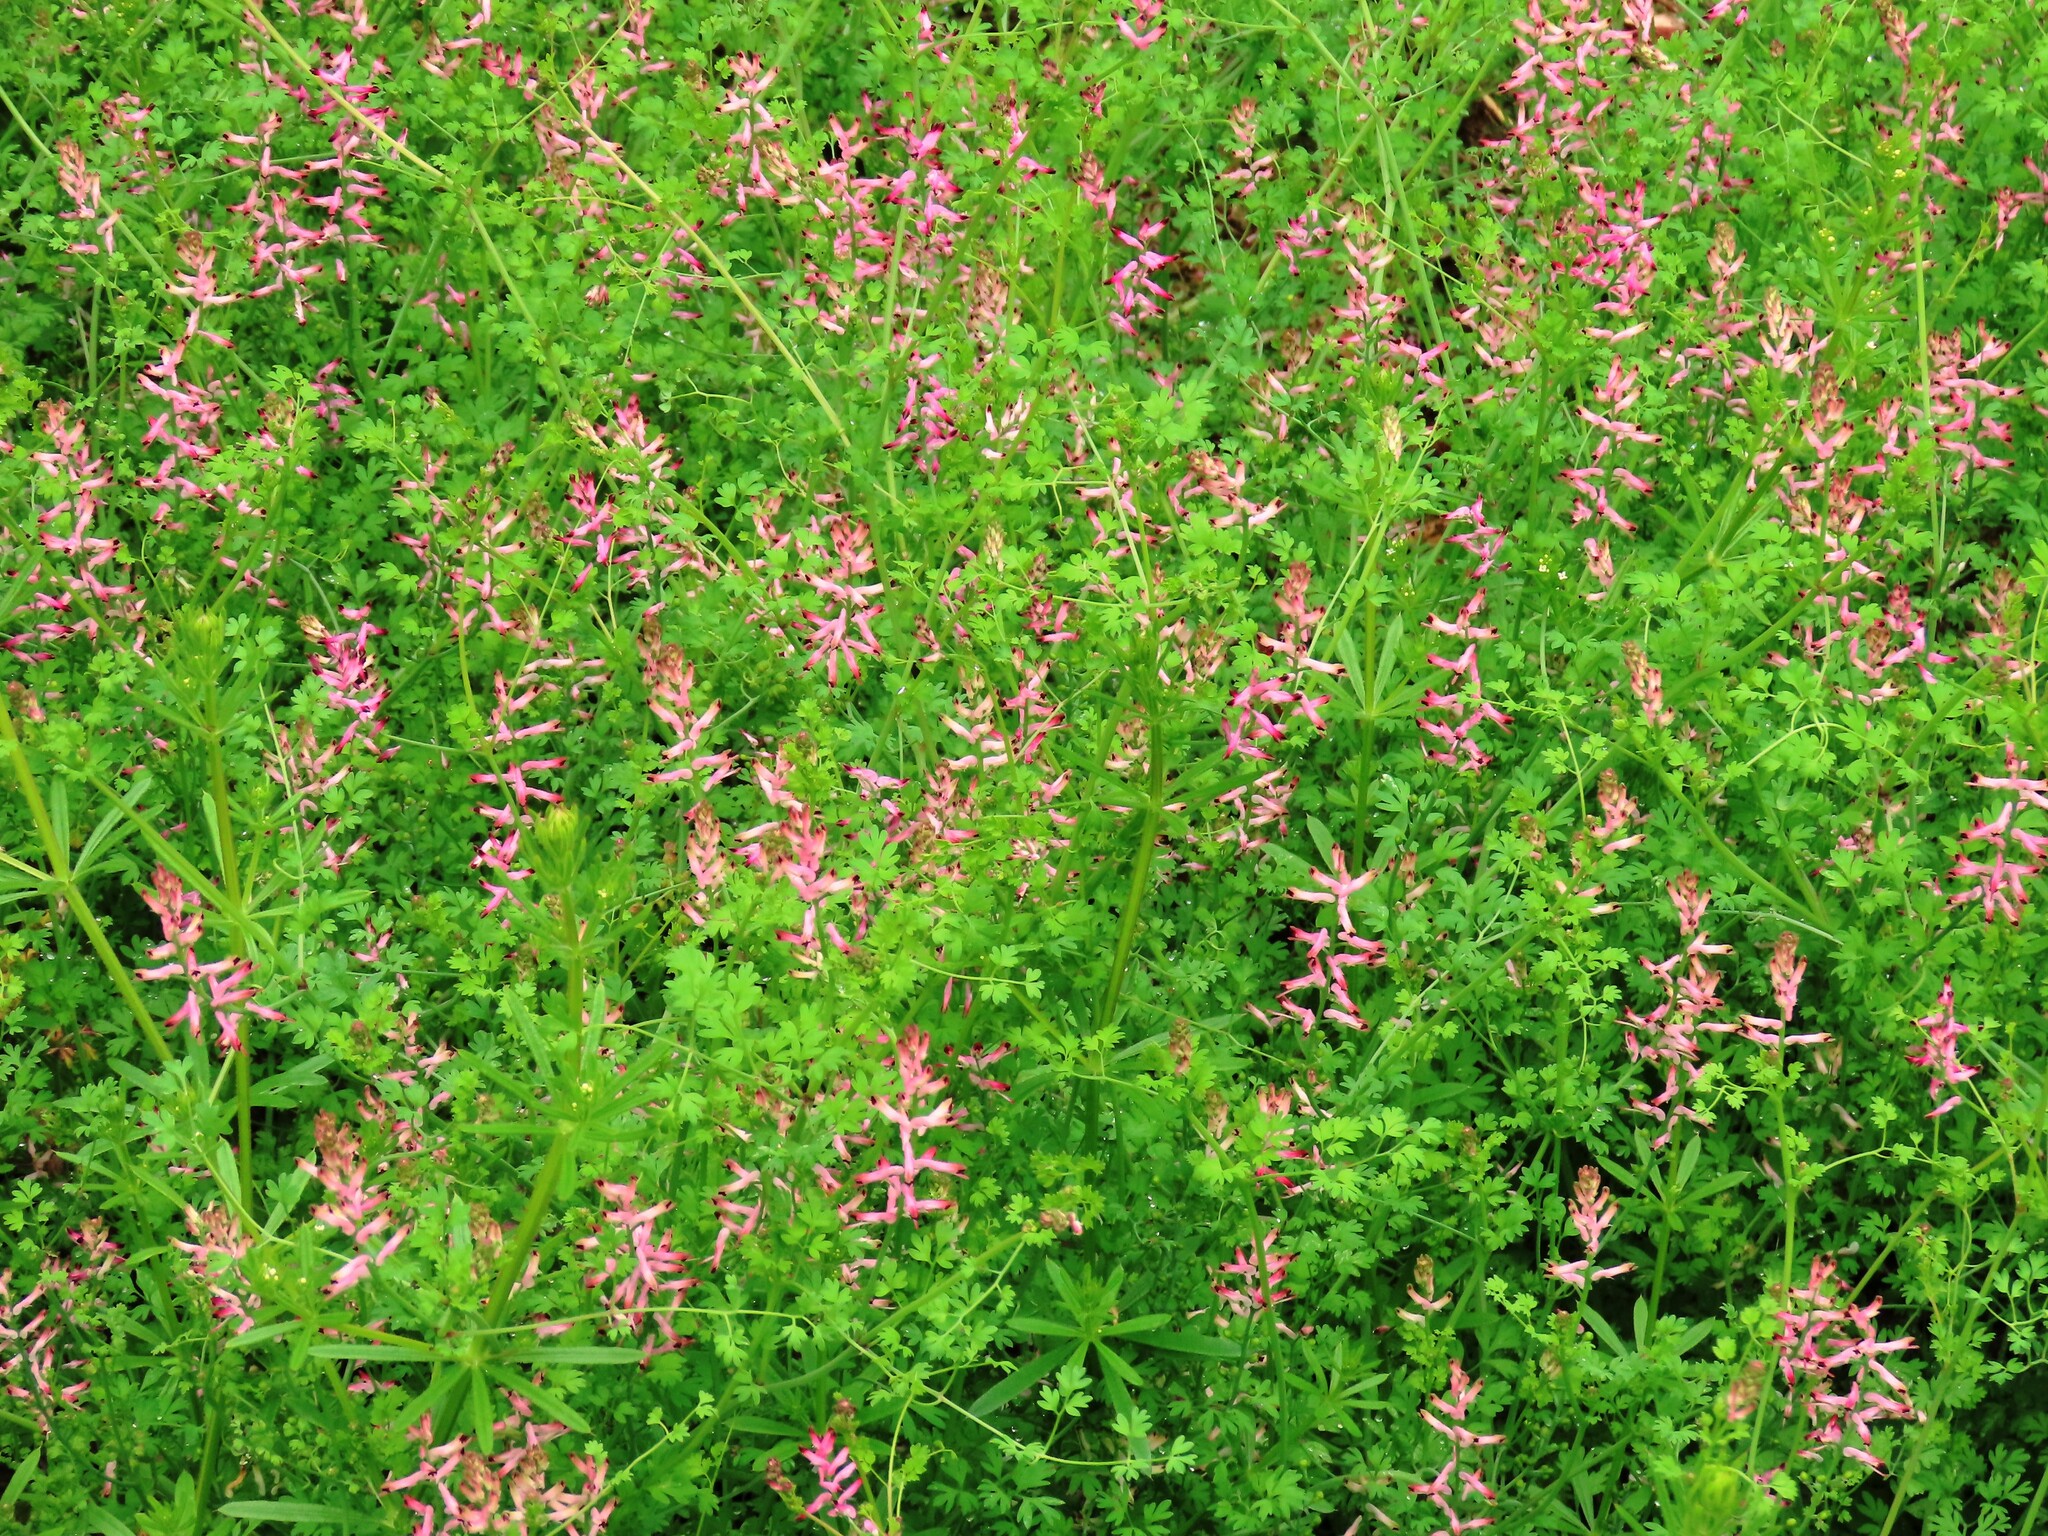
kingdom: Plantae
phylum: Tracheophyta
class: Magnoliopsida
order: Ranunculales
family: Papaveraceae
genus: Fumaria
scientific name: Fumaria bastardii
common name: Tall ramping-fumitory
